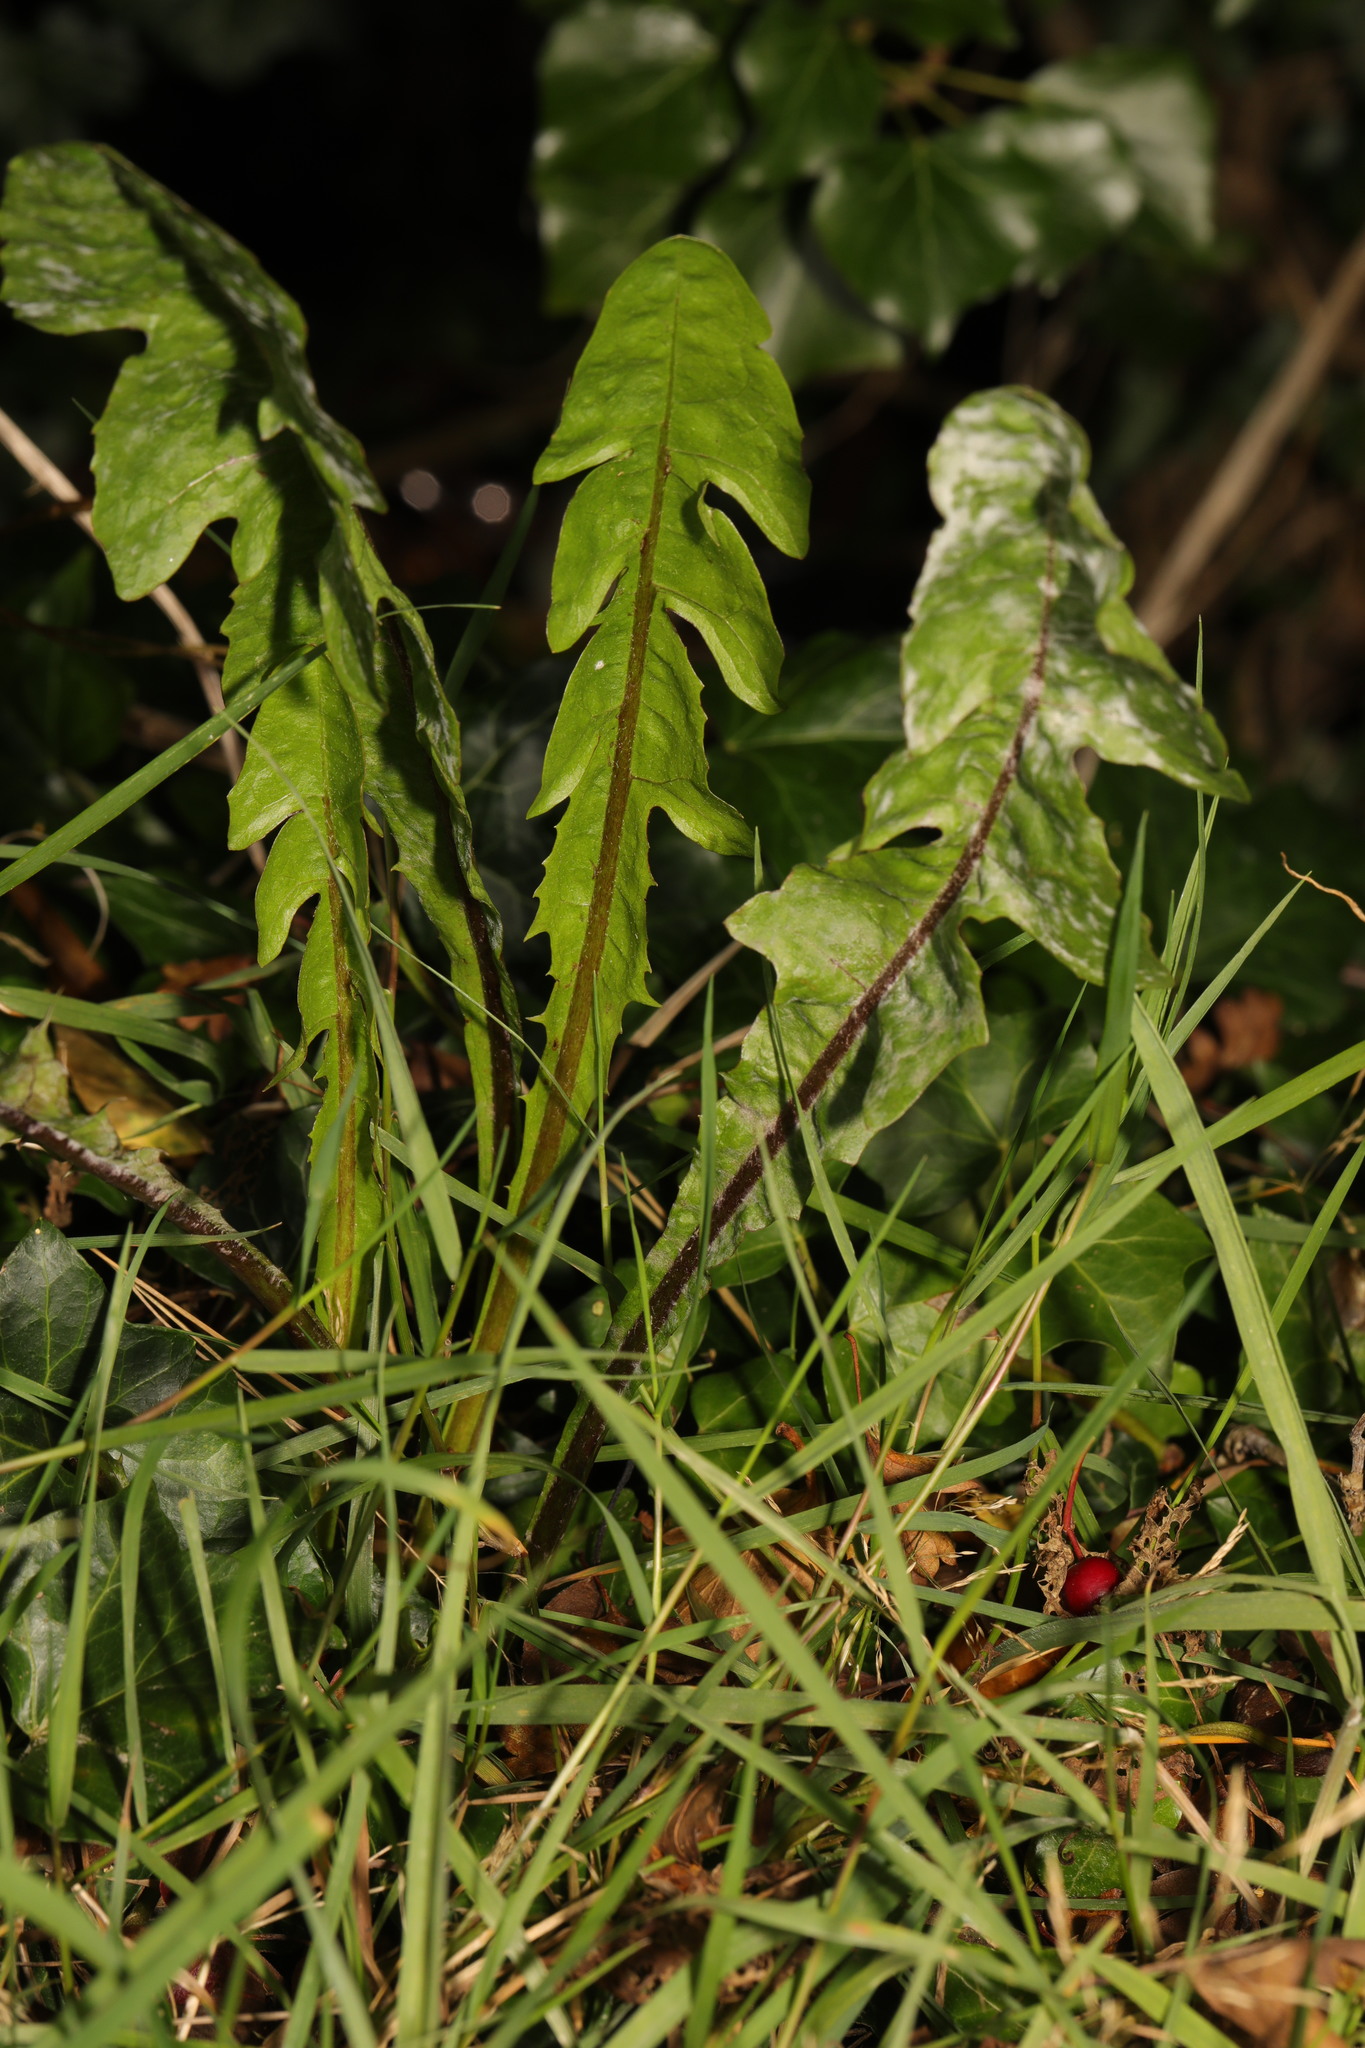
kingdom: Plantae
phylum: Tracheophyta
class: Magnoliopsida
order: Asterales
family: Asteraceae
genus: Taraxacum
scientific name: Taraxacum officinale
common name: Common dandelion
